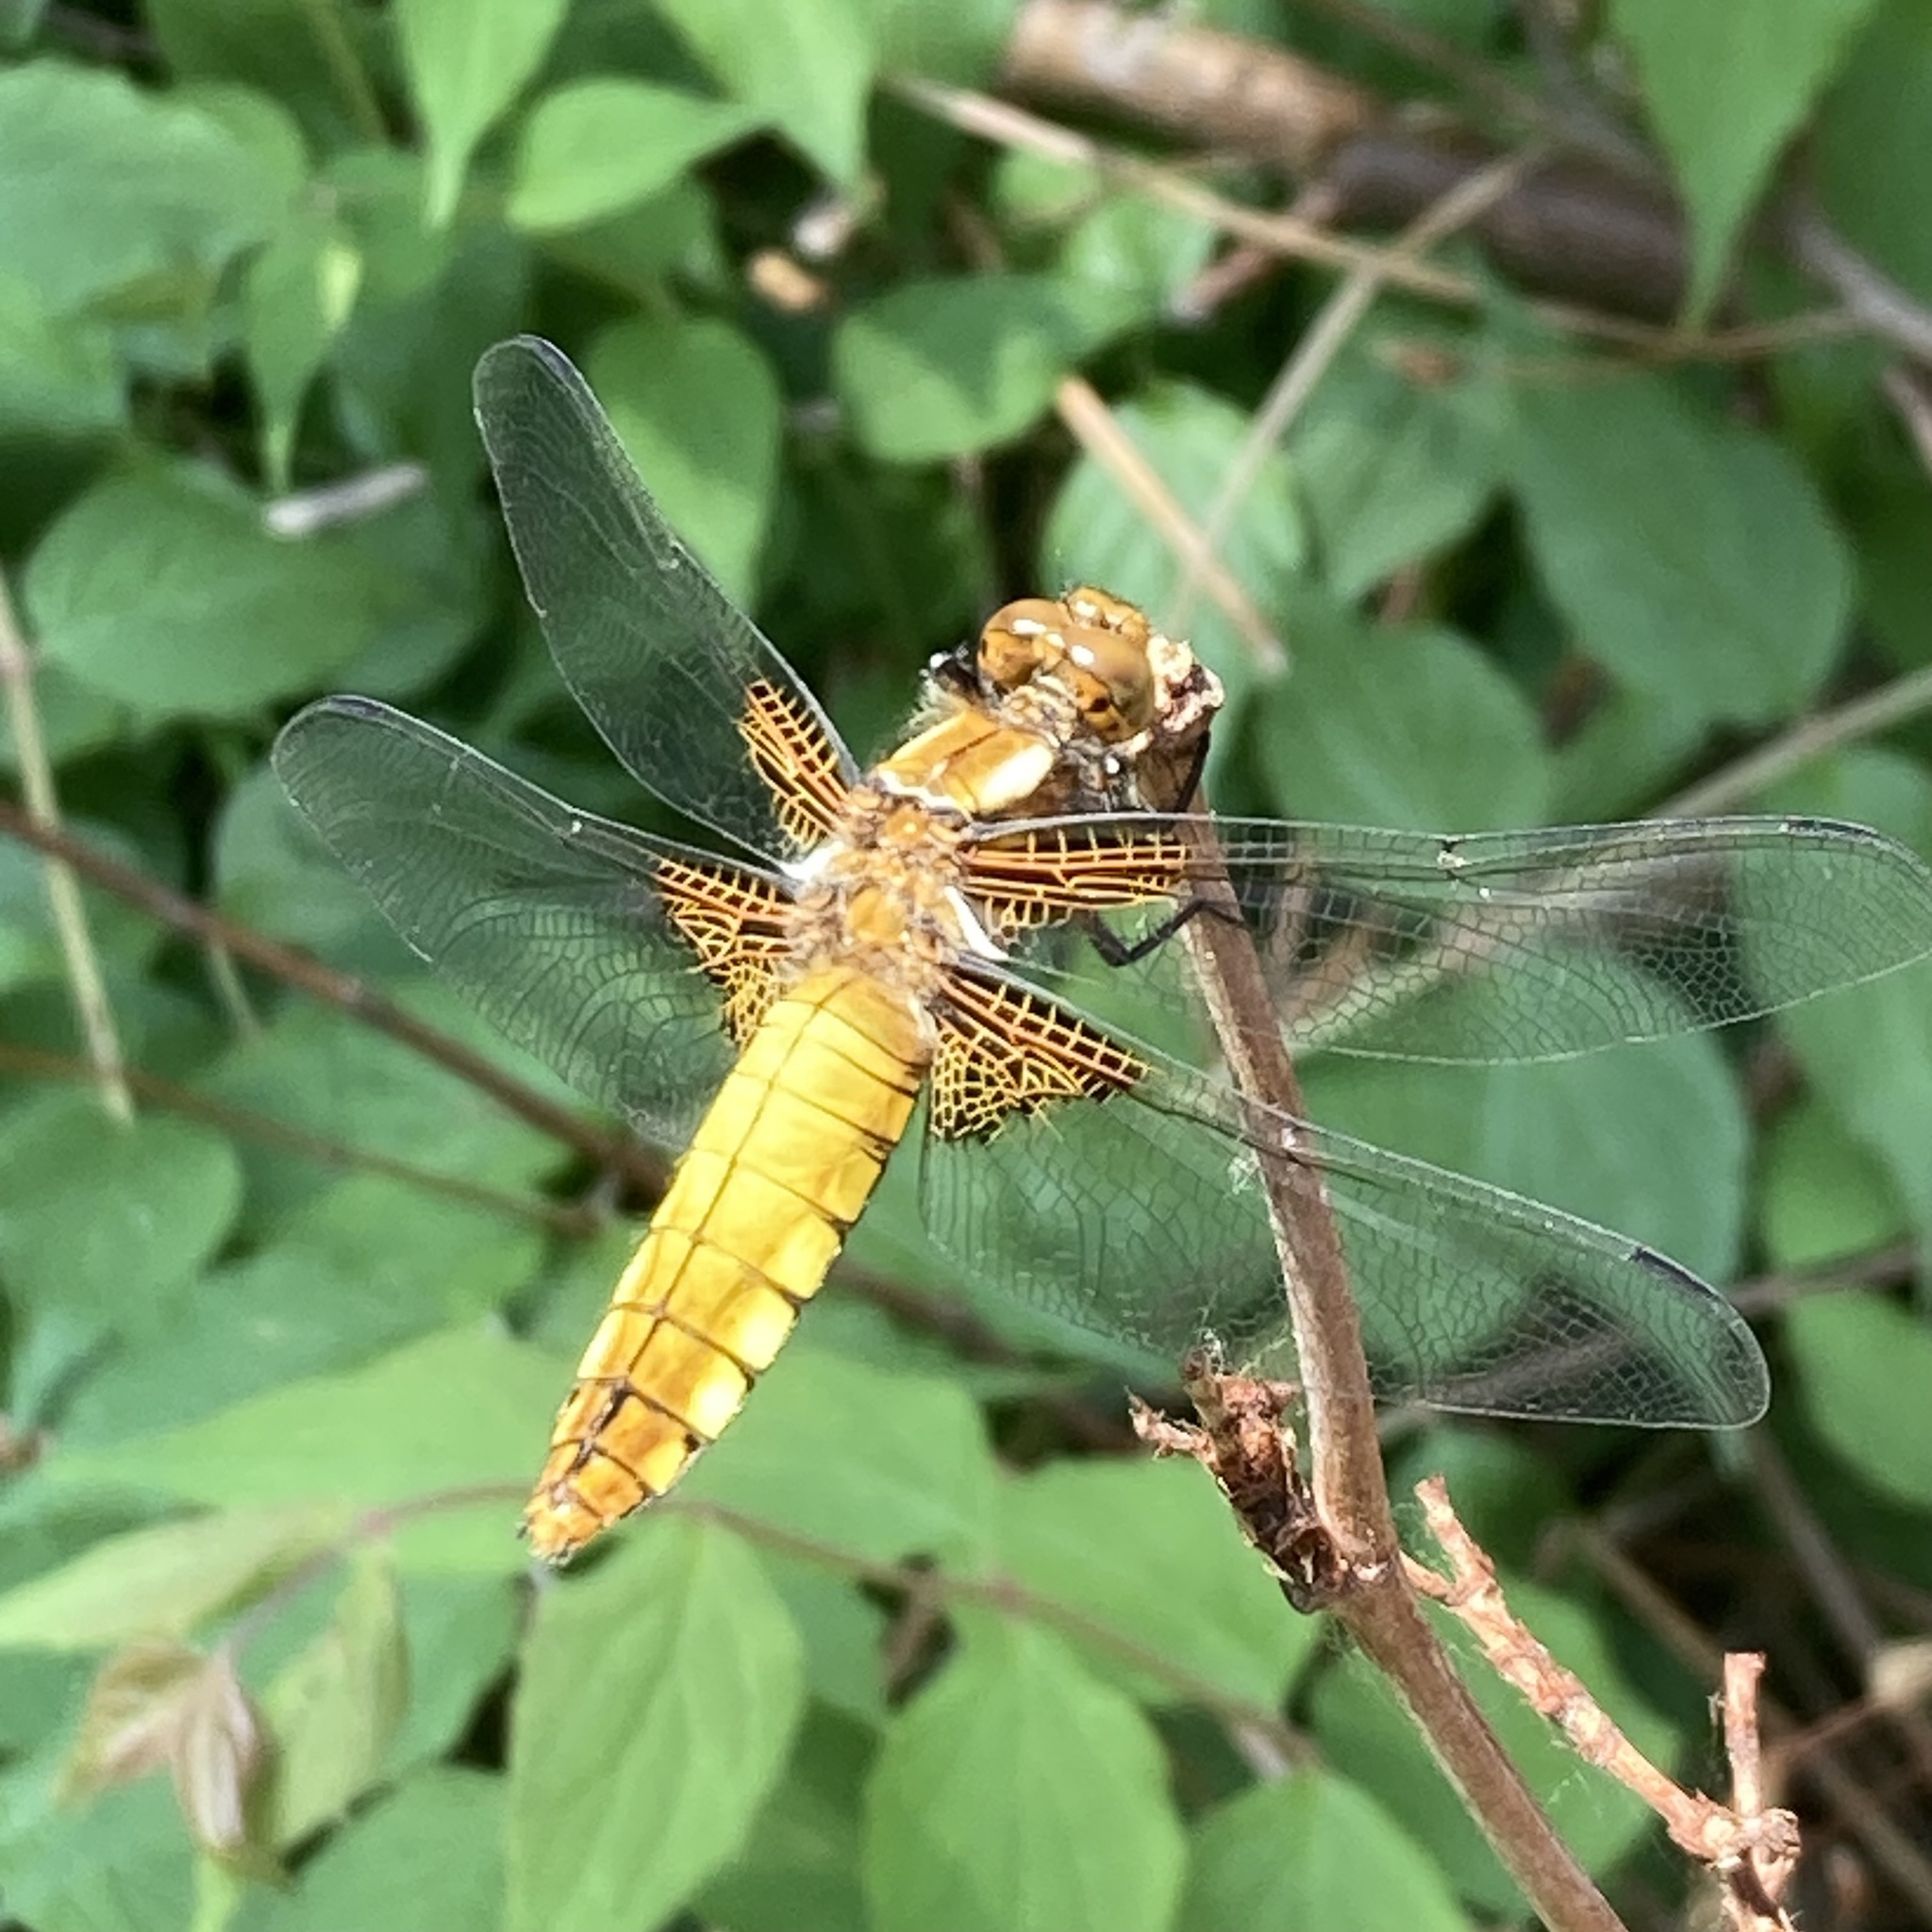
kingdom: Animalia
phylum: Arthropoda
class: Insecta
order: Odonata
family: Libellulidae
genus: Libellula
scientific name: Libellula depressa
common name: Broad-bodied chaser
